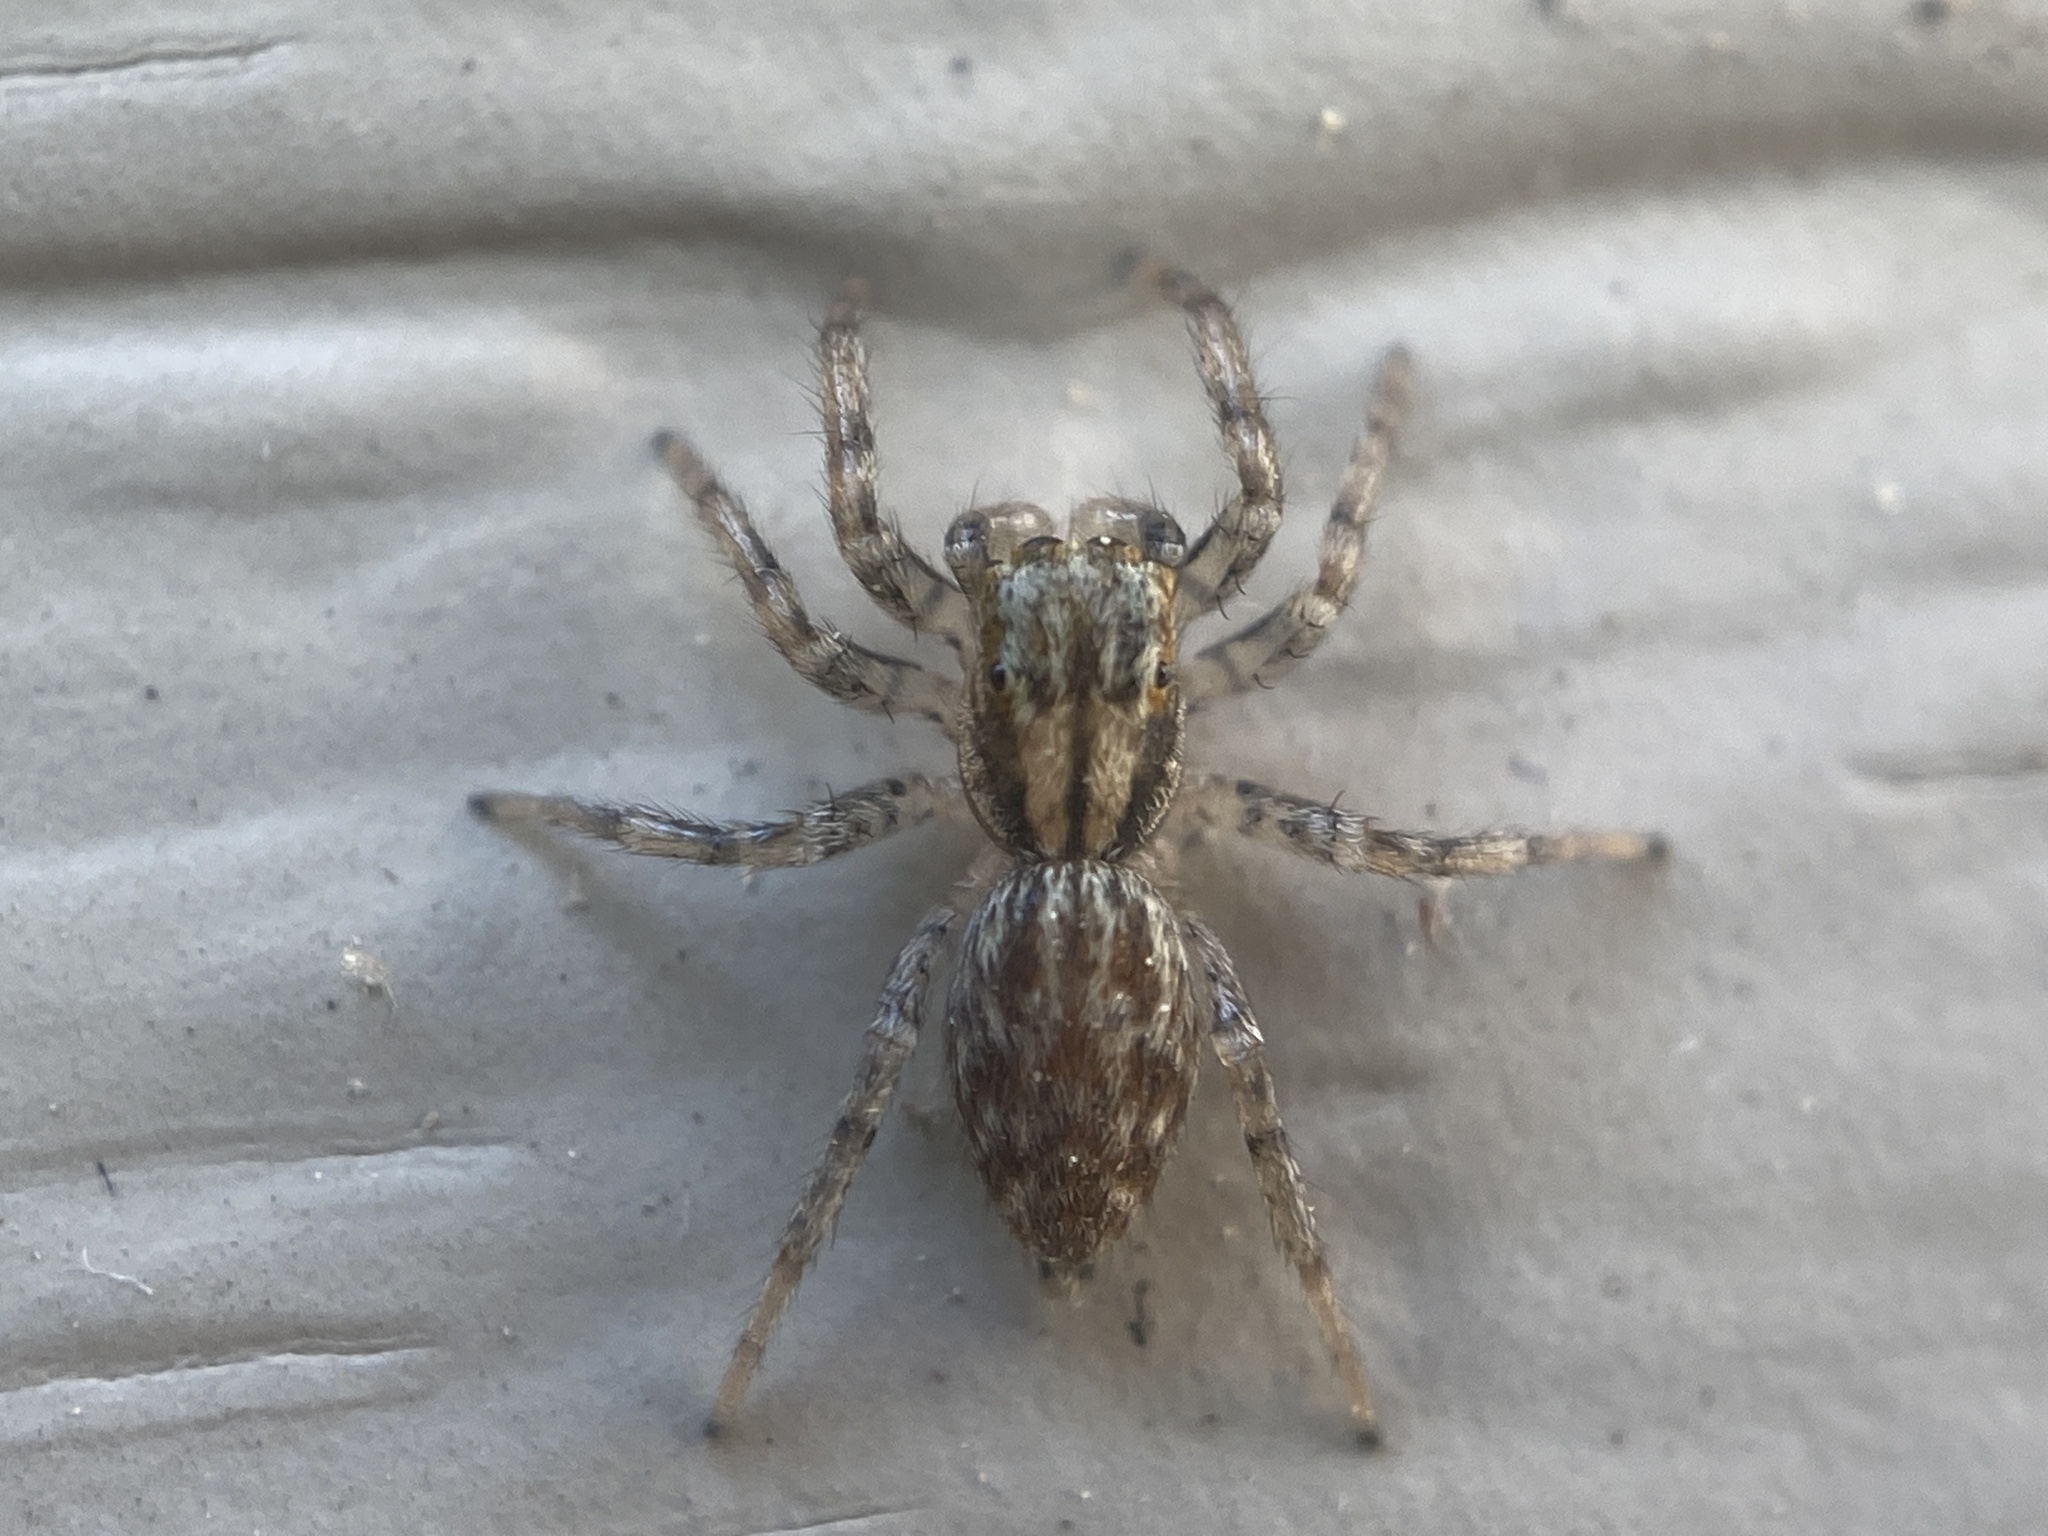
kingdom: Animalia
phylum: Arthropoda
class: Arachnida
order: Araneae
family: Salticidae
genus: Maevia
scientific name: Maevia inclemens
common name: Dimorphic jumper
